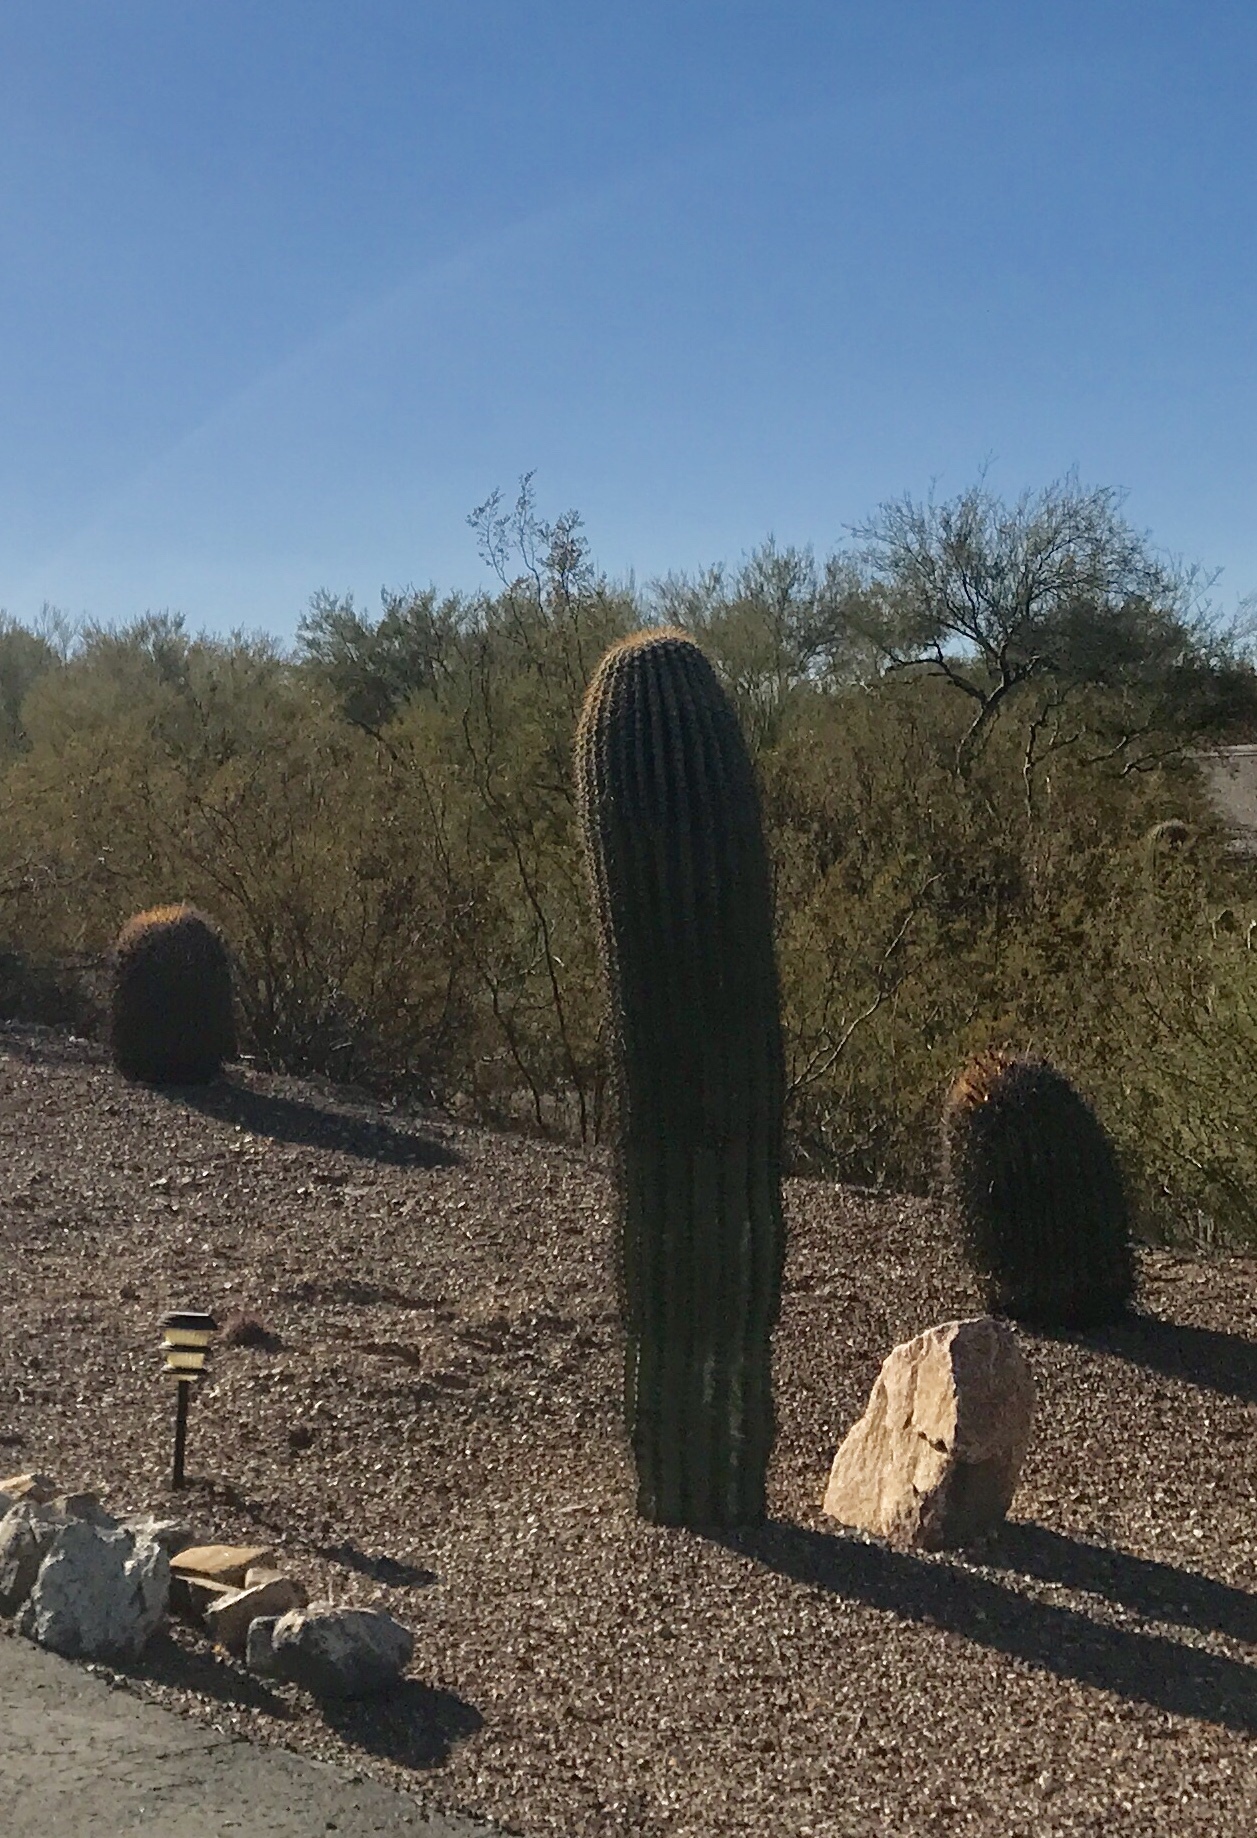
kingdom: Plantae
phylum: Tracheophyta
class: Magnoliopsida
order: Caryophyllales
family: Cactaceae
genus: Ferocactus
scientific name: Ferocactus wislizeni
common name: Candy barrel cactus
